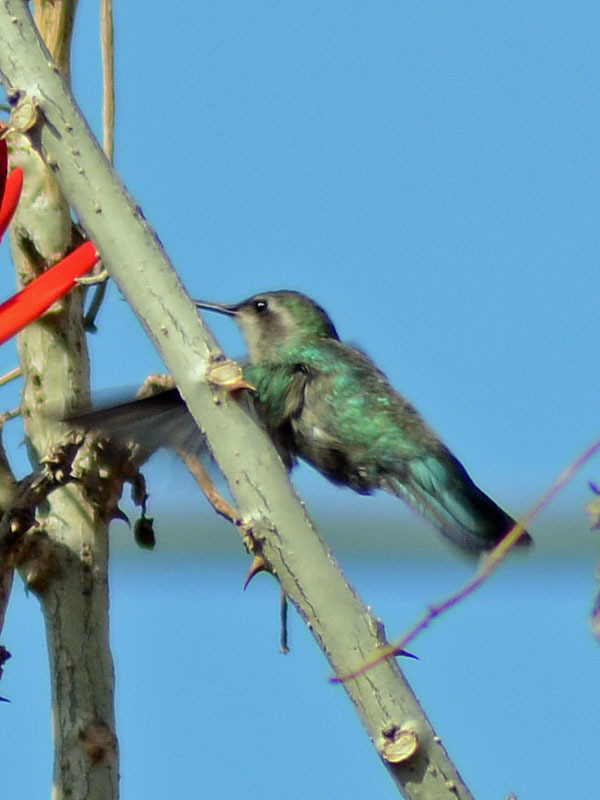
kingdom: Animalia
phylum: Chordata
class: Aves
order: Apodiformes
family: Trochilidae
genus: Cynanthus
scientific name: Cynanthus latirostris
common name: Broad-billed hummingbird
